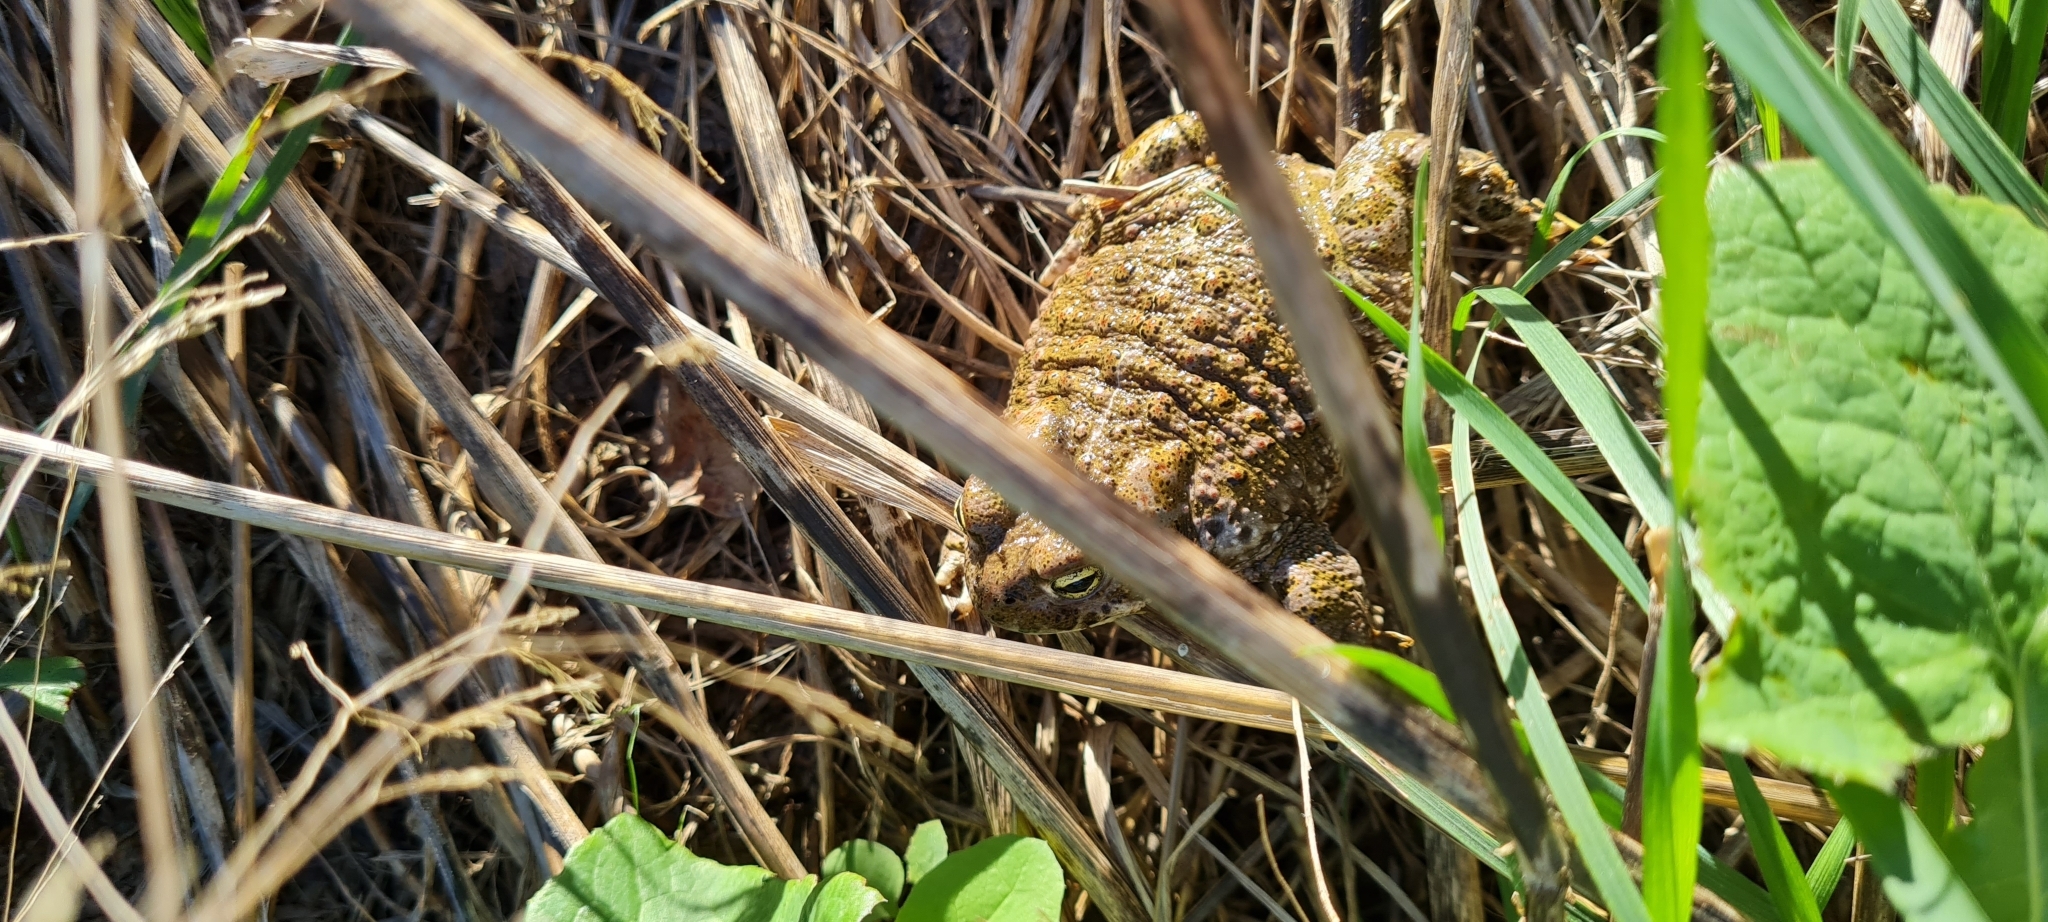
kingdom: Animalia
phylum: Chordata
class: Amphibia
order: Anura
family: Bufonidae
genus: Epidalea
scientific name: Epidalea calamita
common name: Natterjack toad
